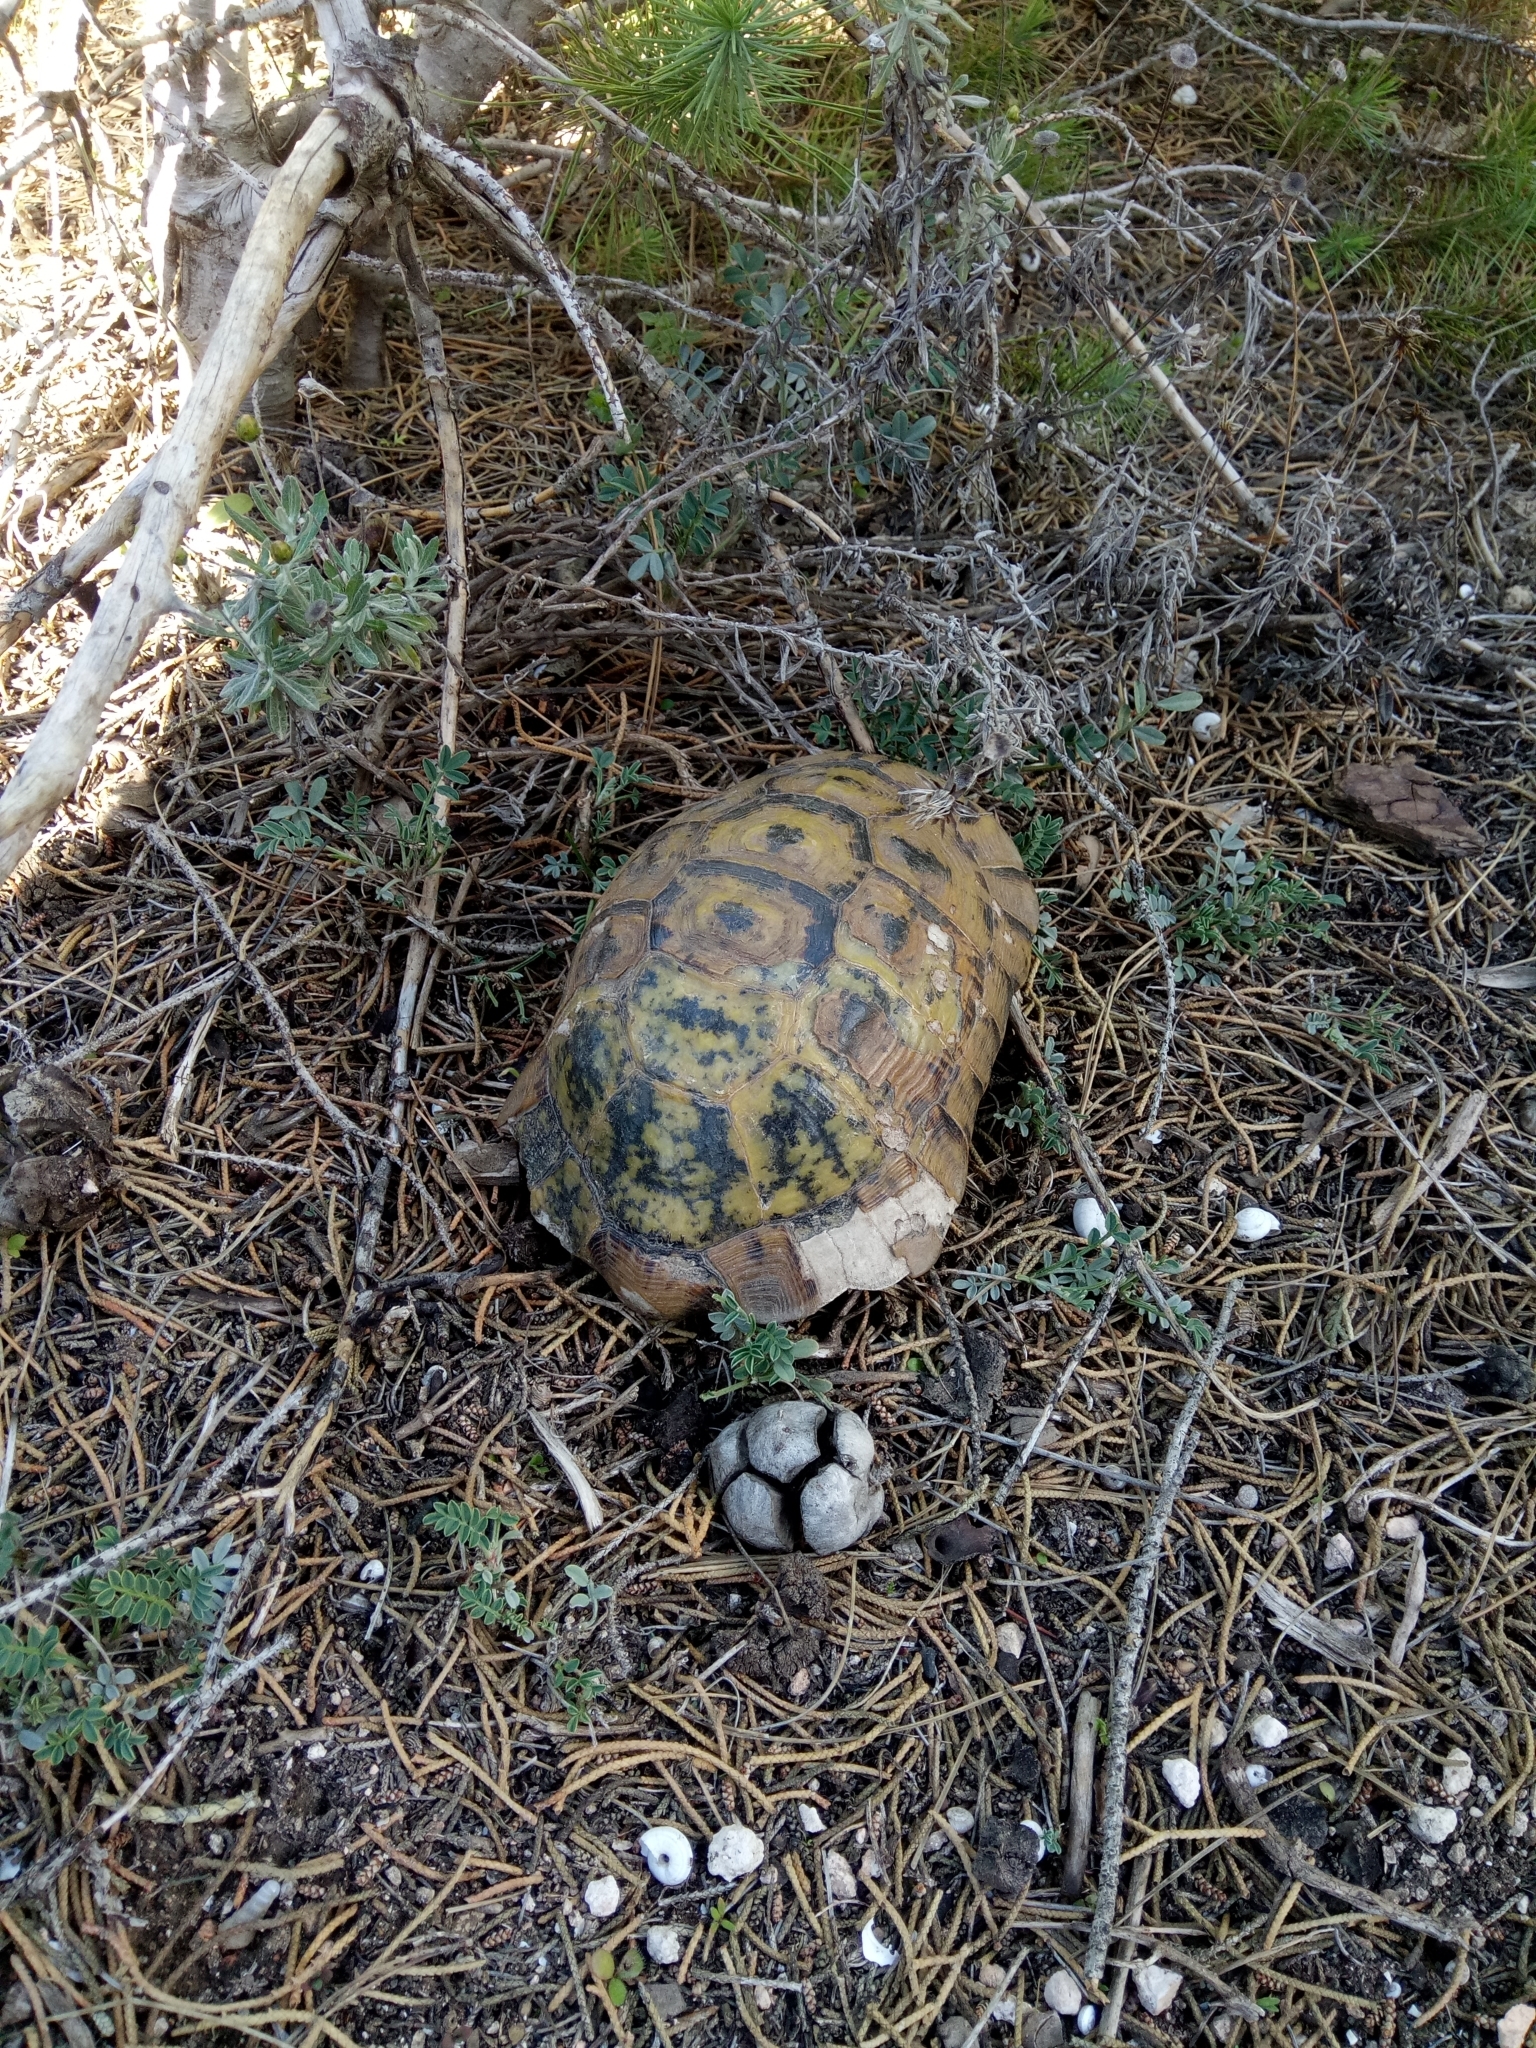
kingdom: Animalia
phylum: Chordata
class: Testudines
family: Testudinidae
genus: Testudo
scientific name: Testudo graeca
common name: Common tortoise
